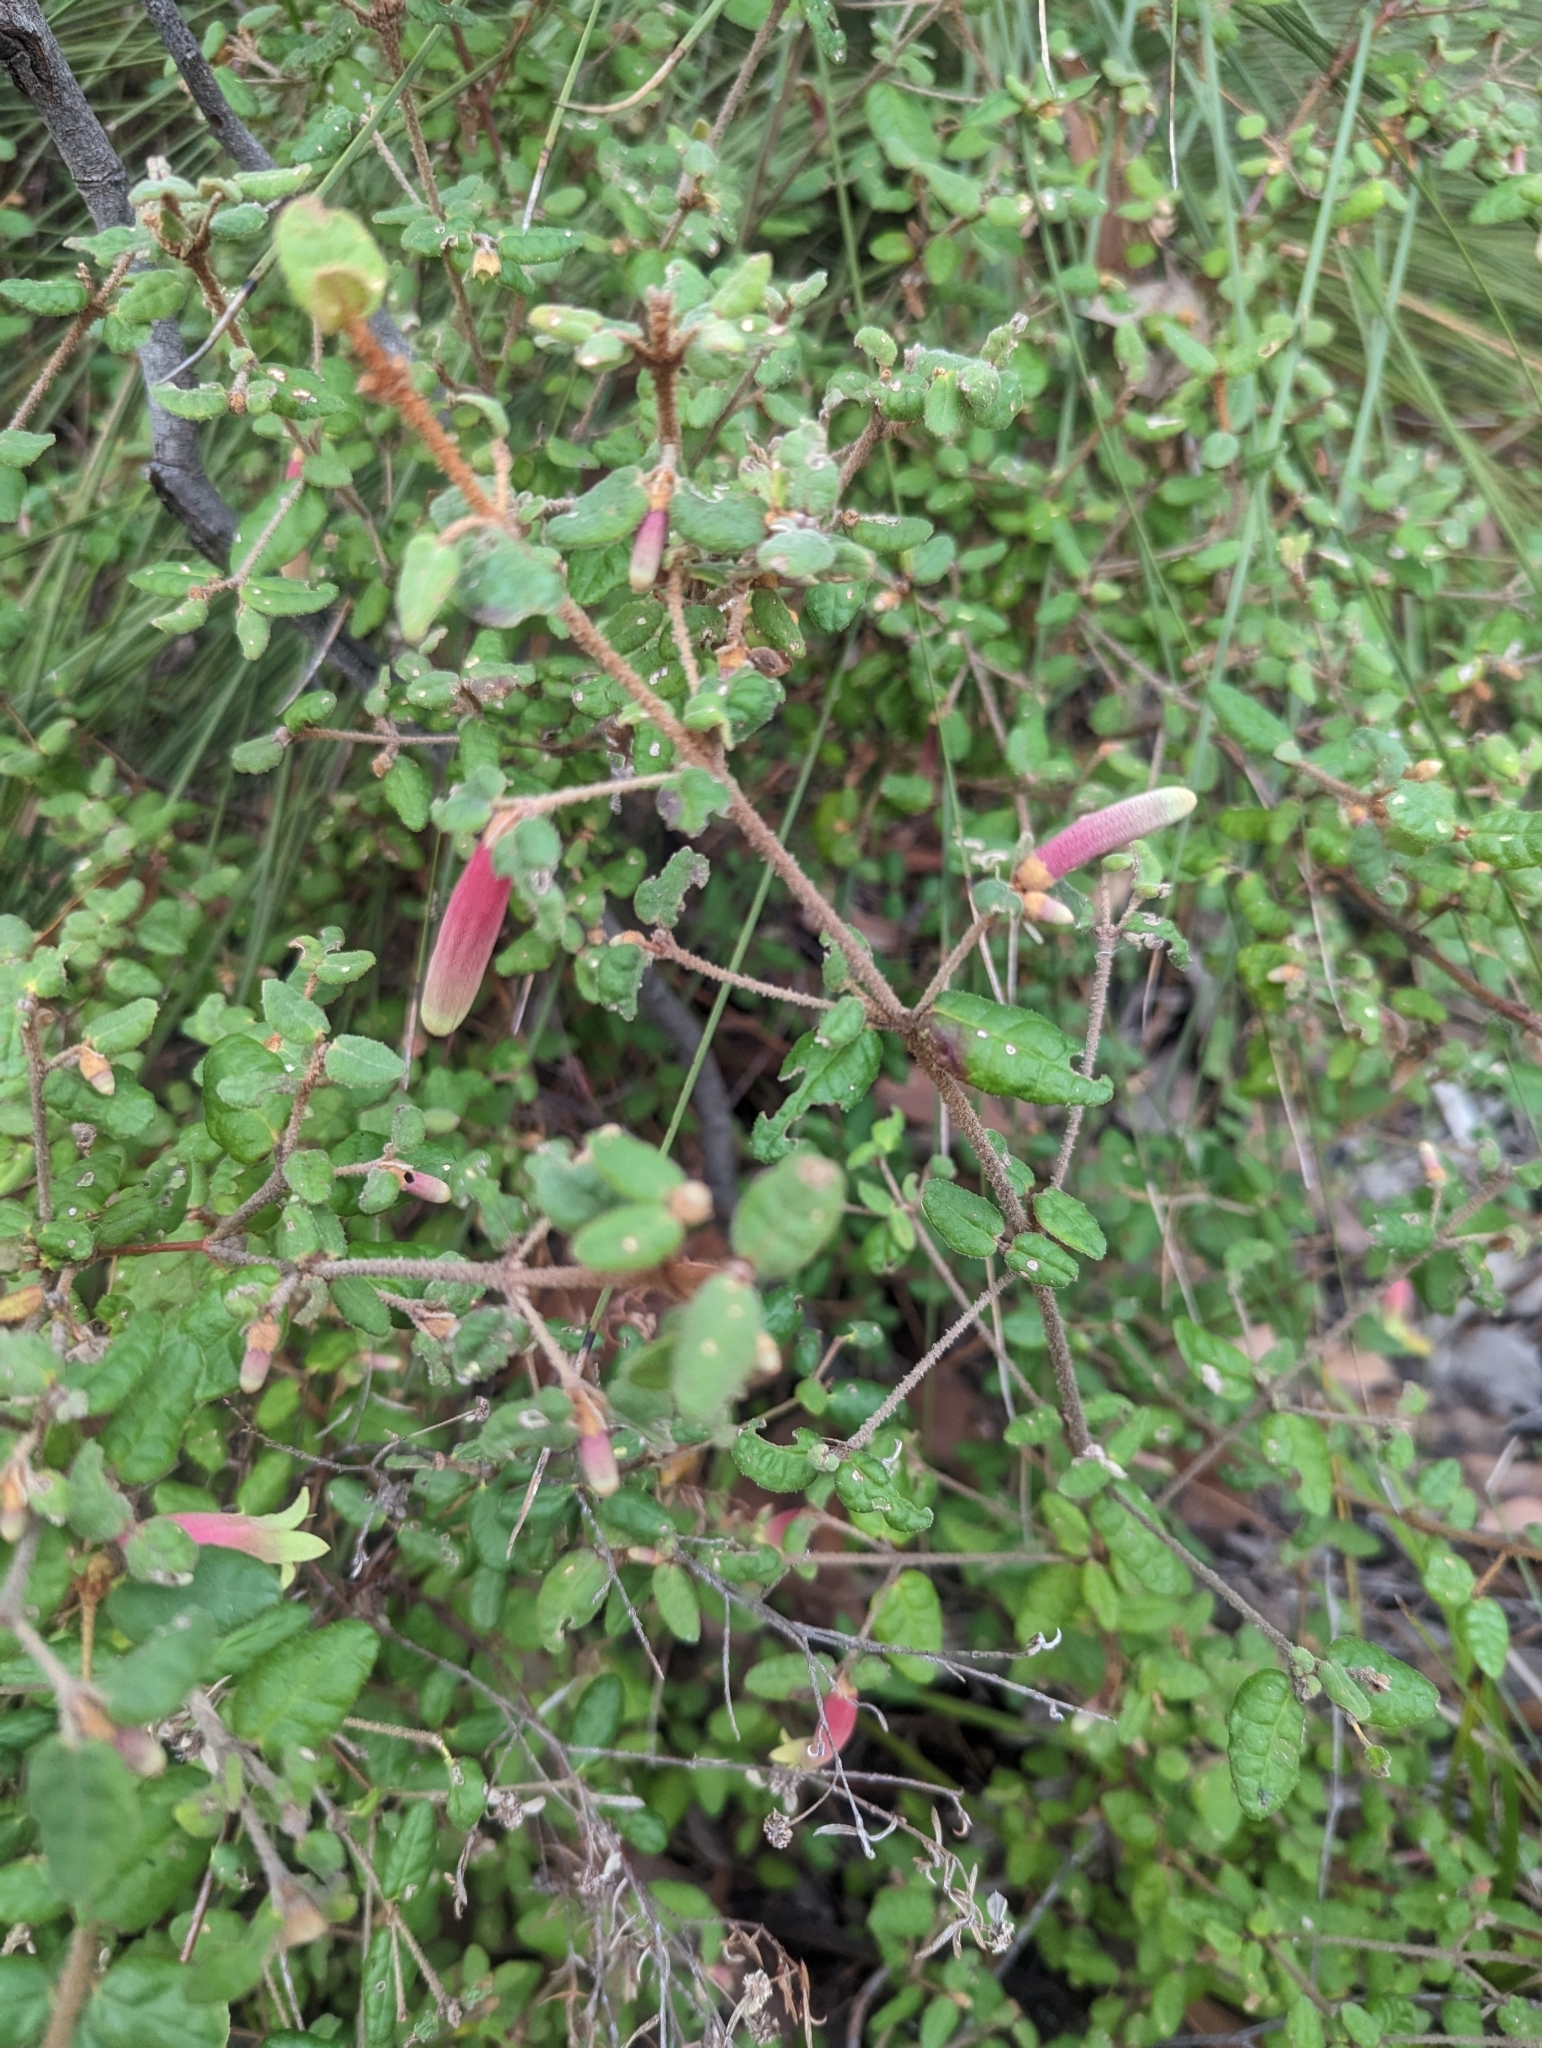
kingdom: Plantae
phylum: Tracheophyta
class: Magnoliopsida
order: Sapindales
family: Rutaceae
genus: Correa
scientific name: Correa reflexa
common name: Common correa
